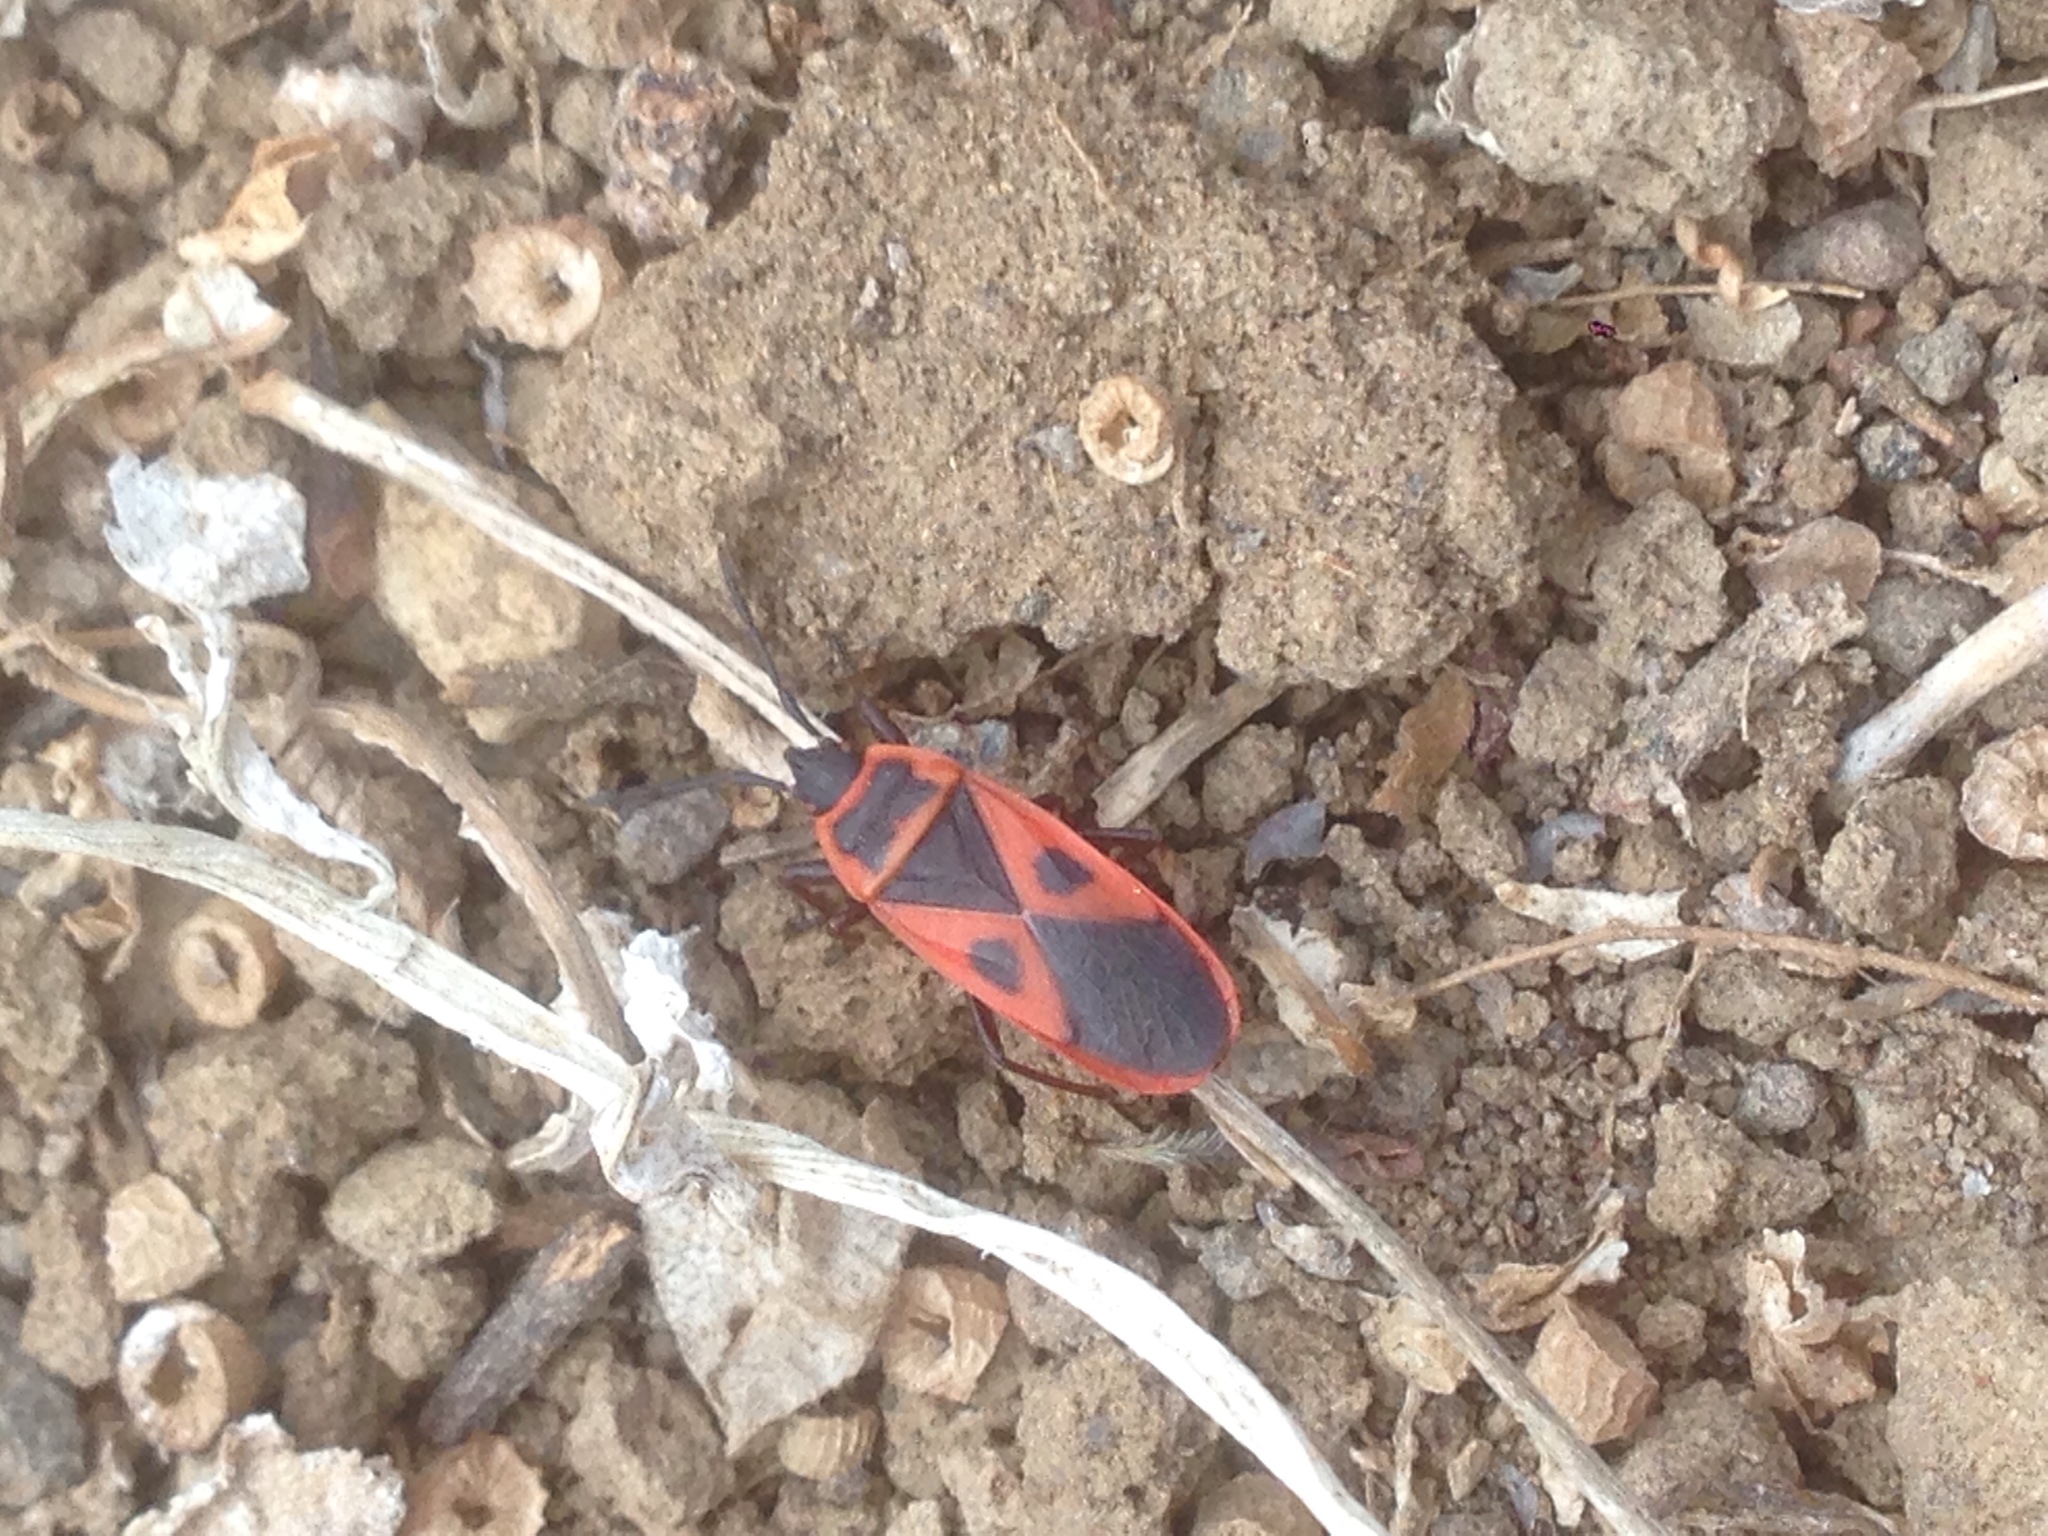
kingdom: Animalia
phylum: Arthropoda
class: Insecta
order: Hemiptera
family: Pyrrhocoridae
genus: Scantius
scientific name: Scantius aegyptius
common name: Red bug
